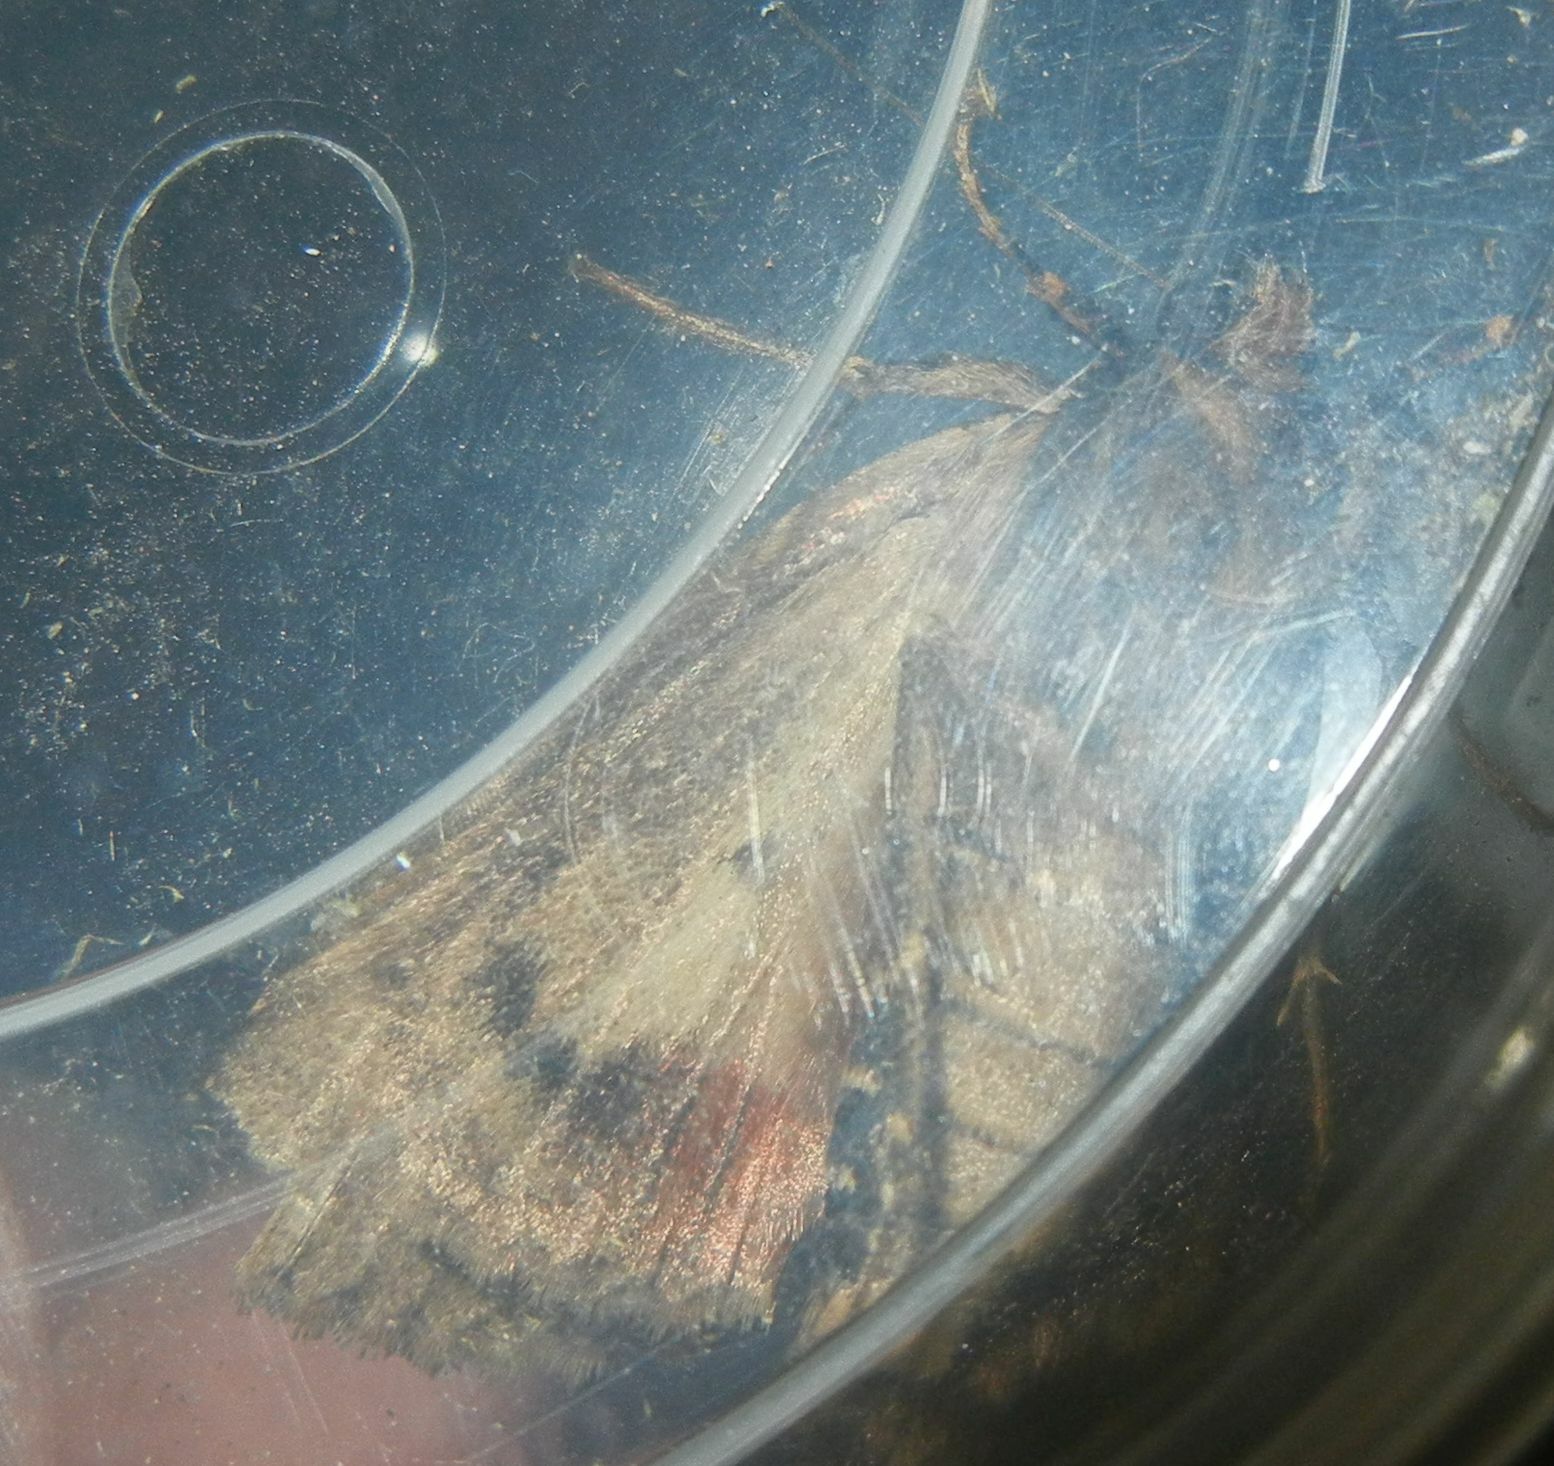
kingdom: Animalia
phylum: Arthropoda
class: Insecta
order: Lepidoptera
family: Noctuidae
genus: Amphipyra
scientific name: Amphipyra pyramidea
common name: Copper underwing
